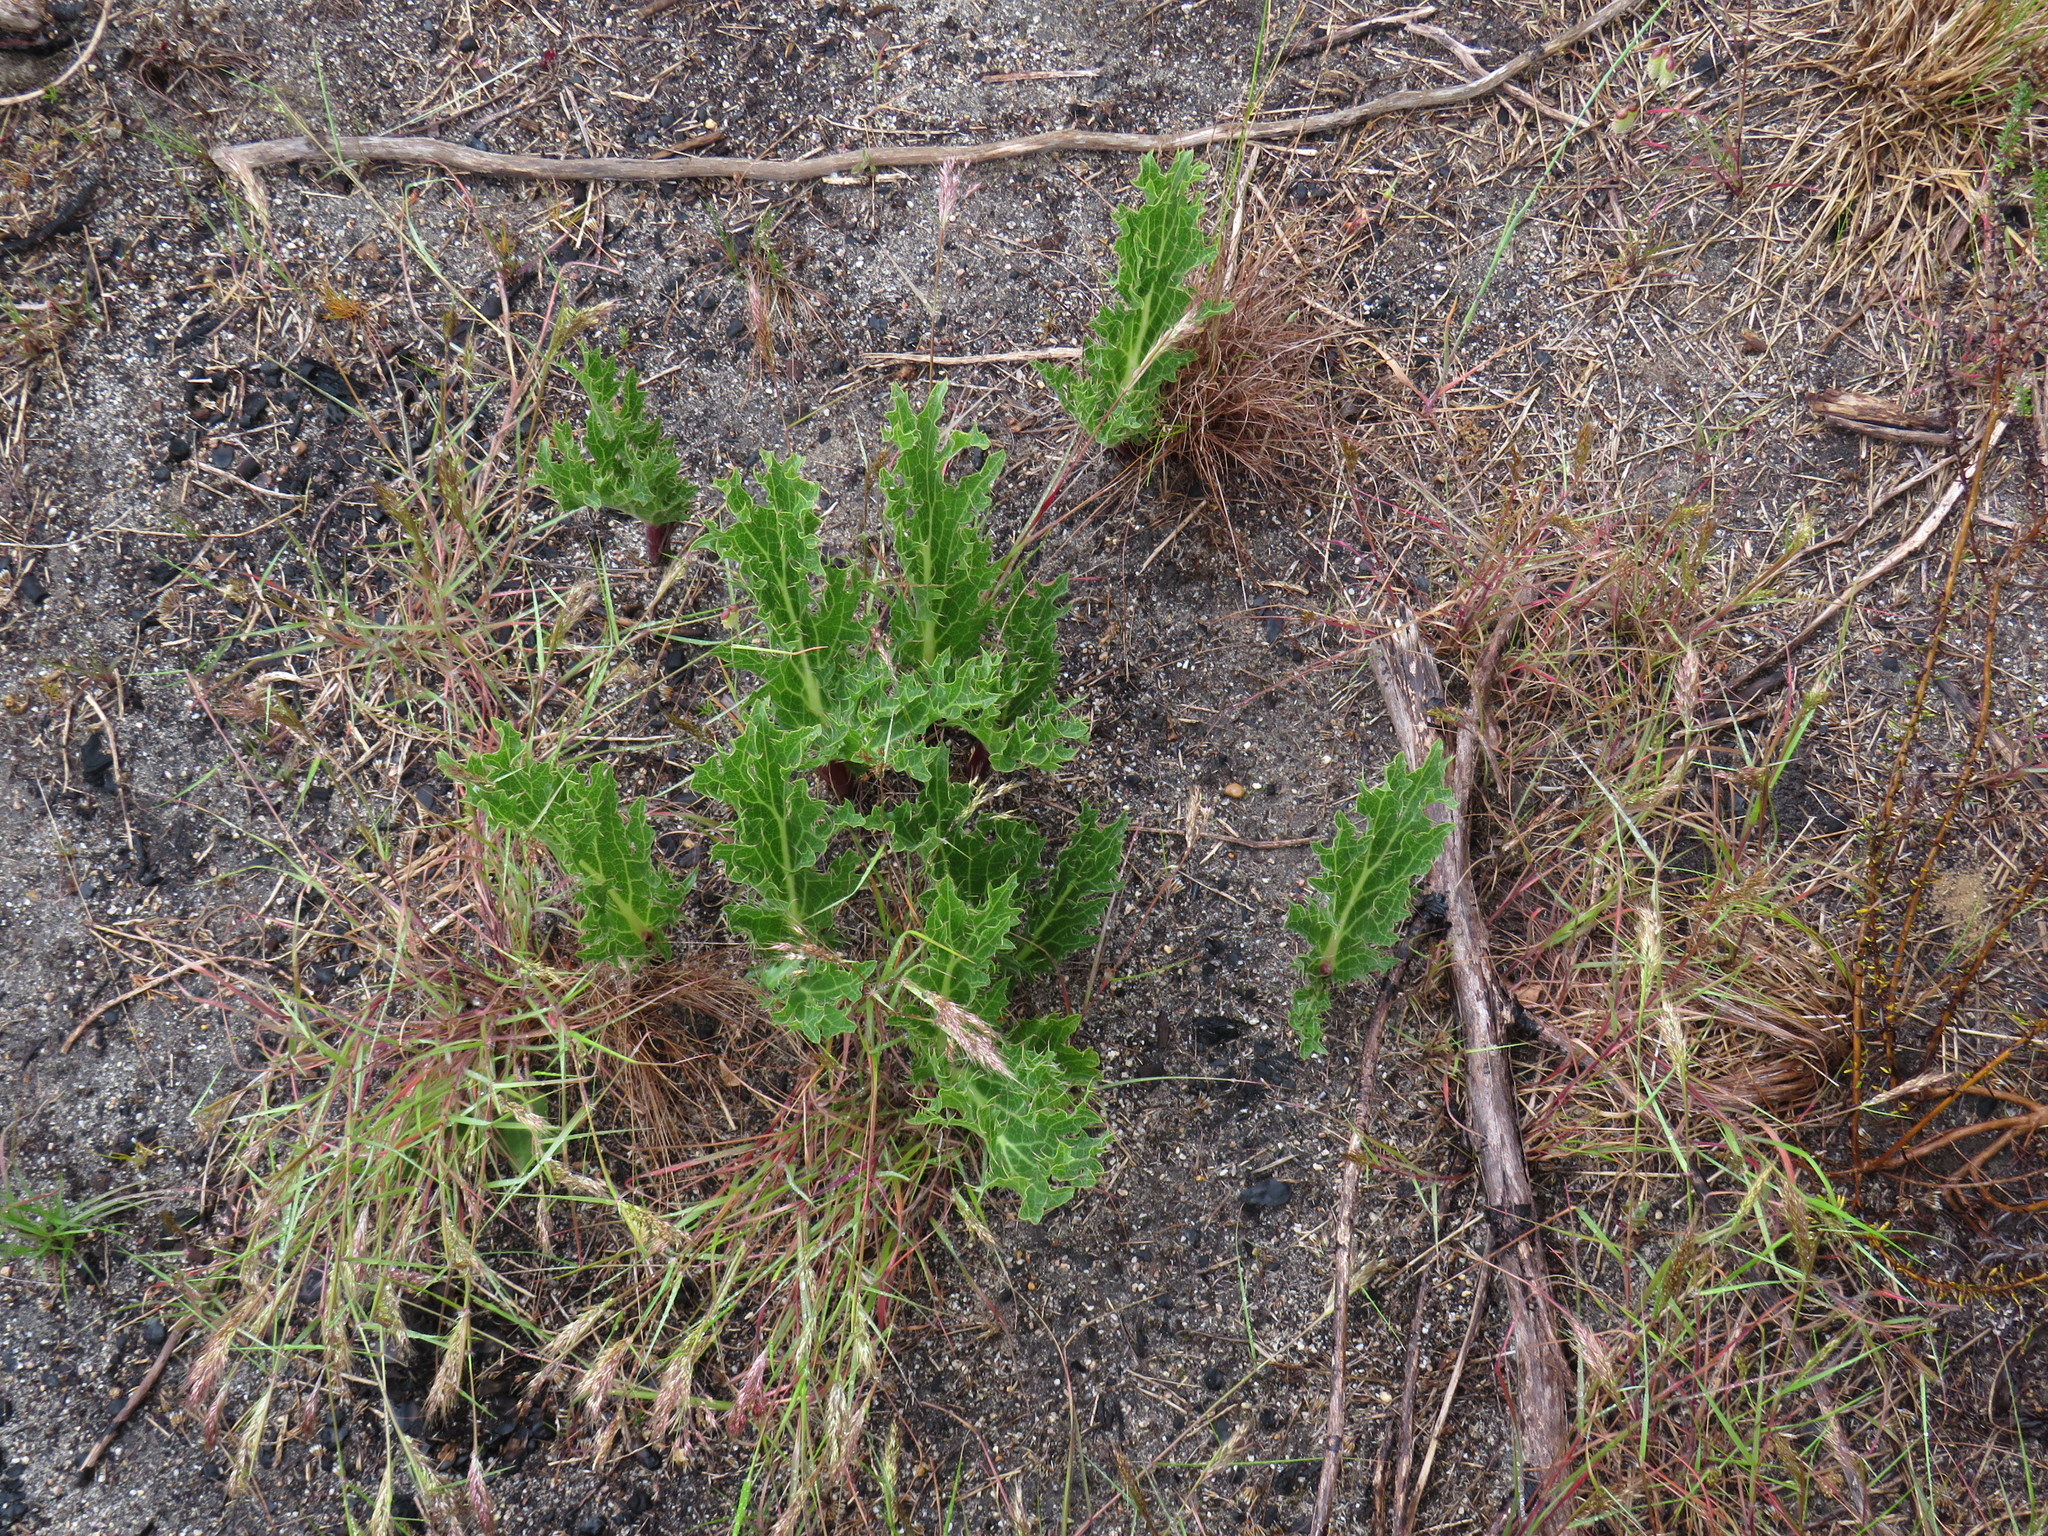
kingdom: Plantae
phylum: Tracheophyta
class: Magnoliopsida
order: Apiales
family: Apiaceae
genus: Lichtensteinia
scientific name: Lichtensteinia lacera
